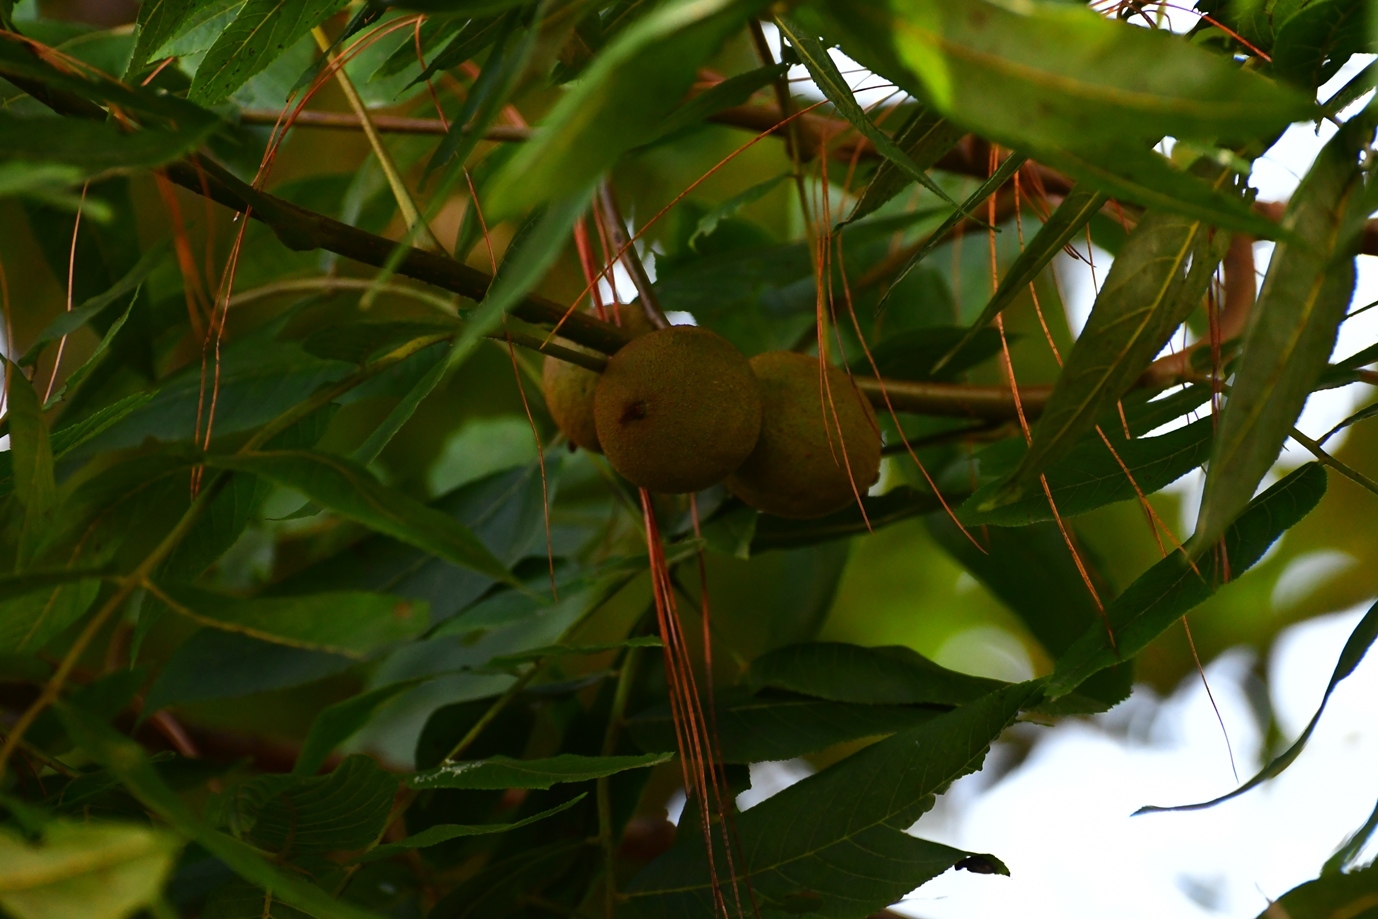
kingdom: Plantae
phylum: Tracheophyta
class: Magnoliopsida
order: Fagales
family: Juglandaceae
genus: Juglans
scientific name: Juglans olanchana
